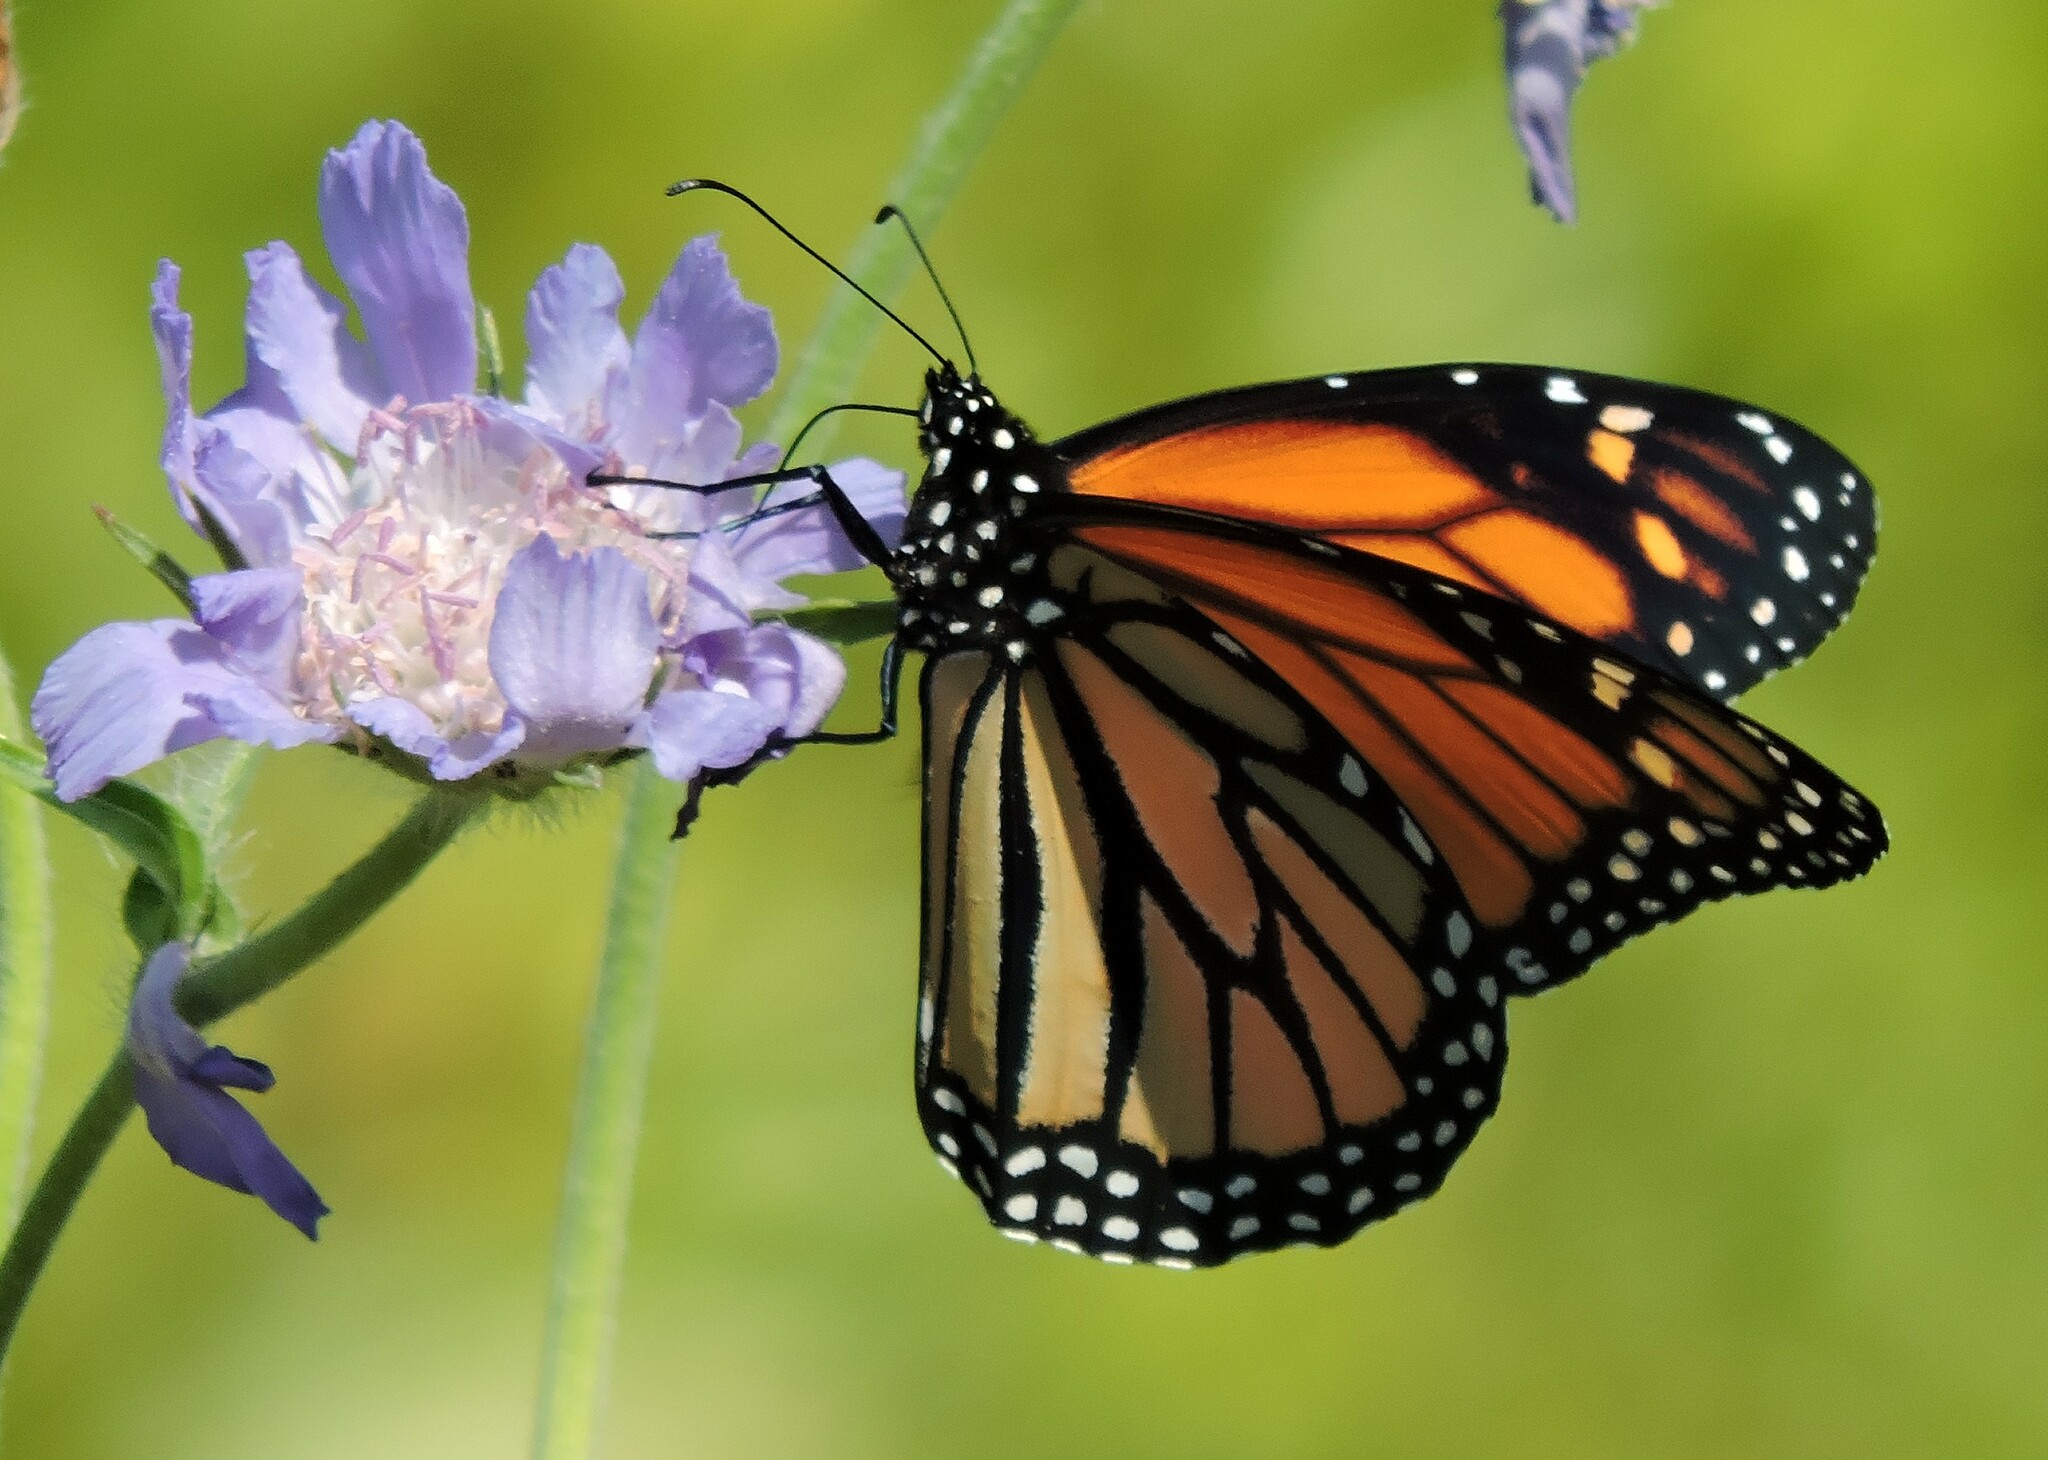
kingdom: Animalia
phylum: Arthropoda
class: Insecta
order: Lepidoptera
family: Nymphalidae
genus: Danaus
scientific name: Danaus plexippus
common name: Monarch
